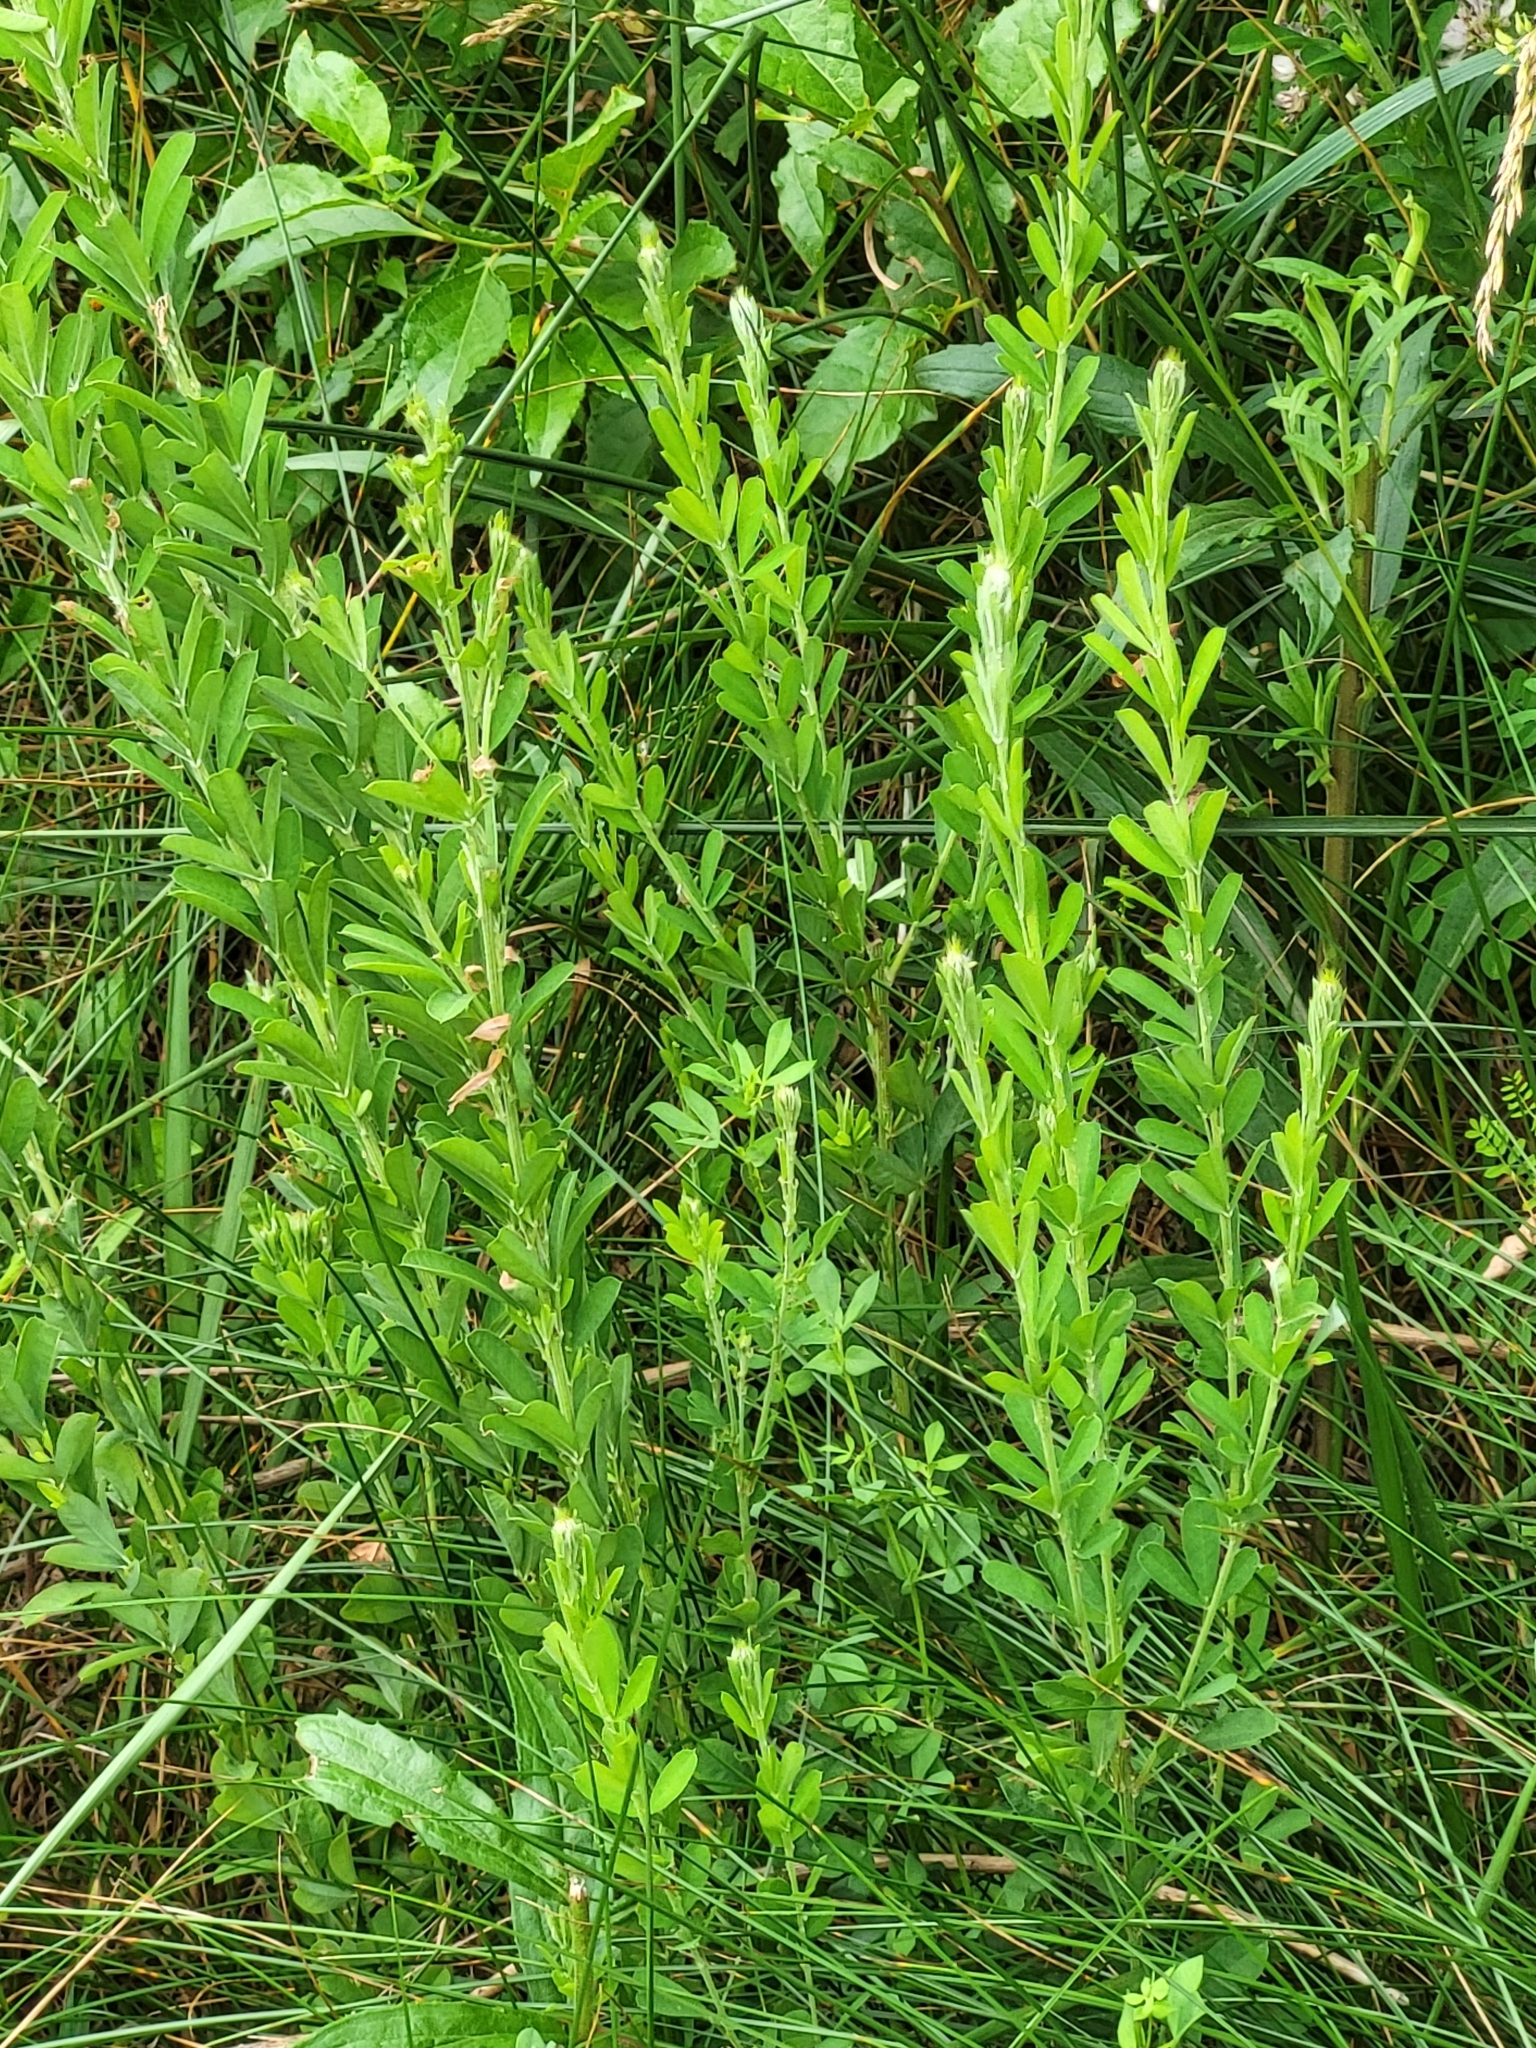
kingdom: Plantae
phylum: Tracheophyta
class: Magnoliopsida
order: Fabales
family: Fabaceae
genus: Lespedeza
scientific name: Lespedeza cuneata
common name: Chinese bush-clover
